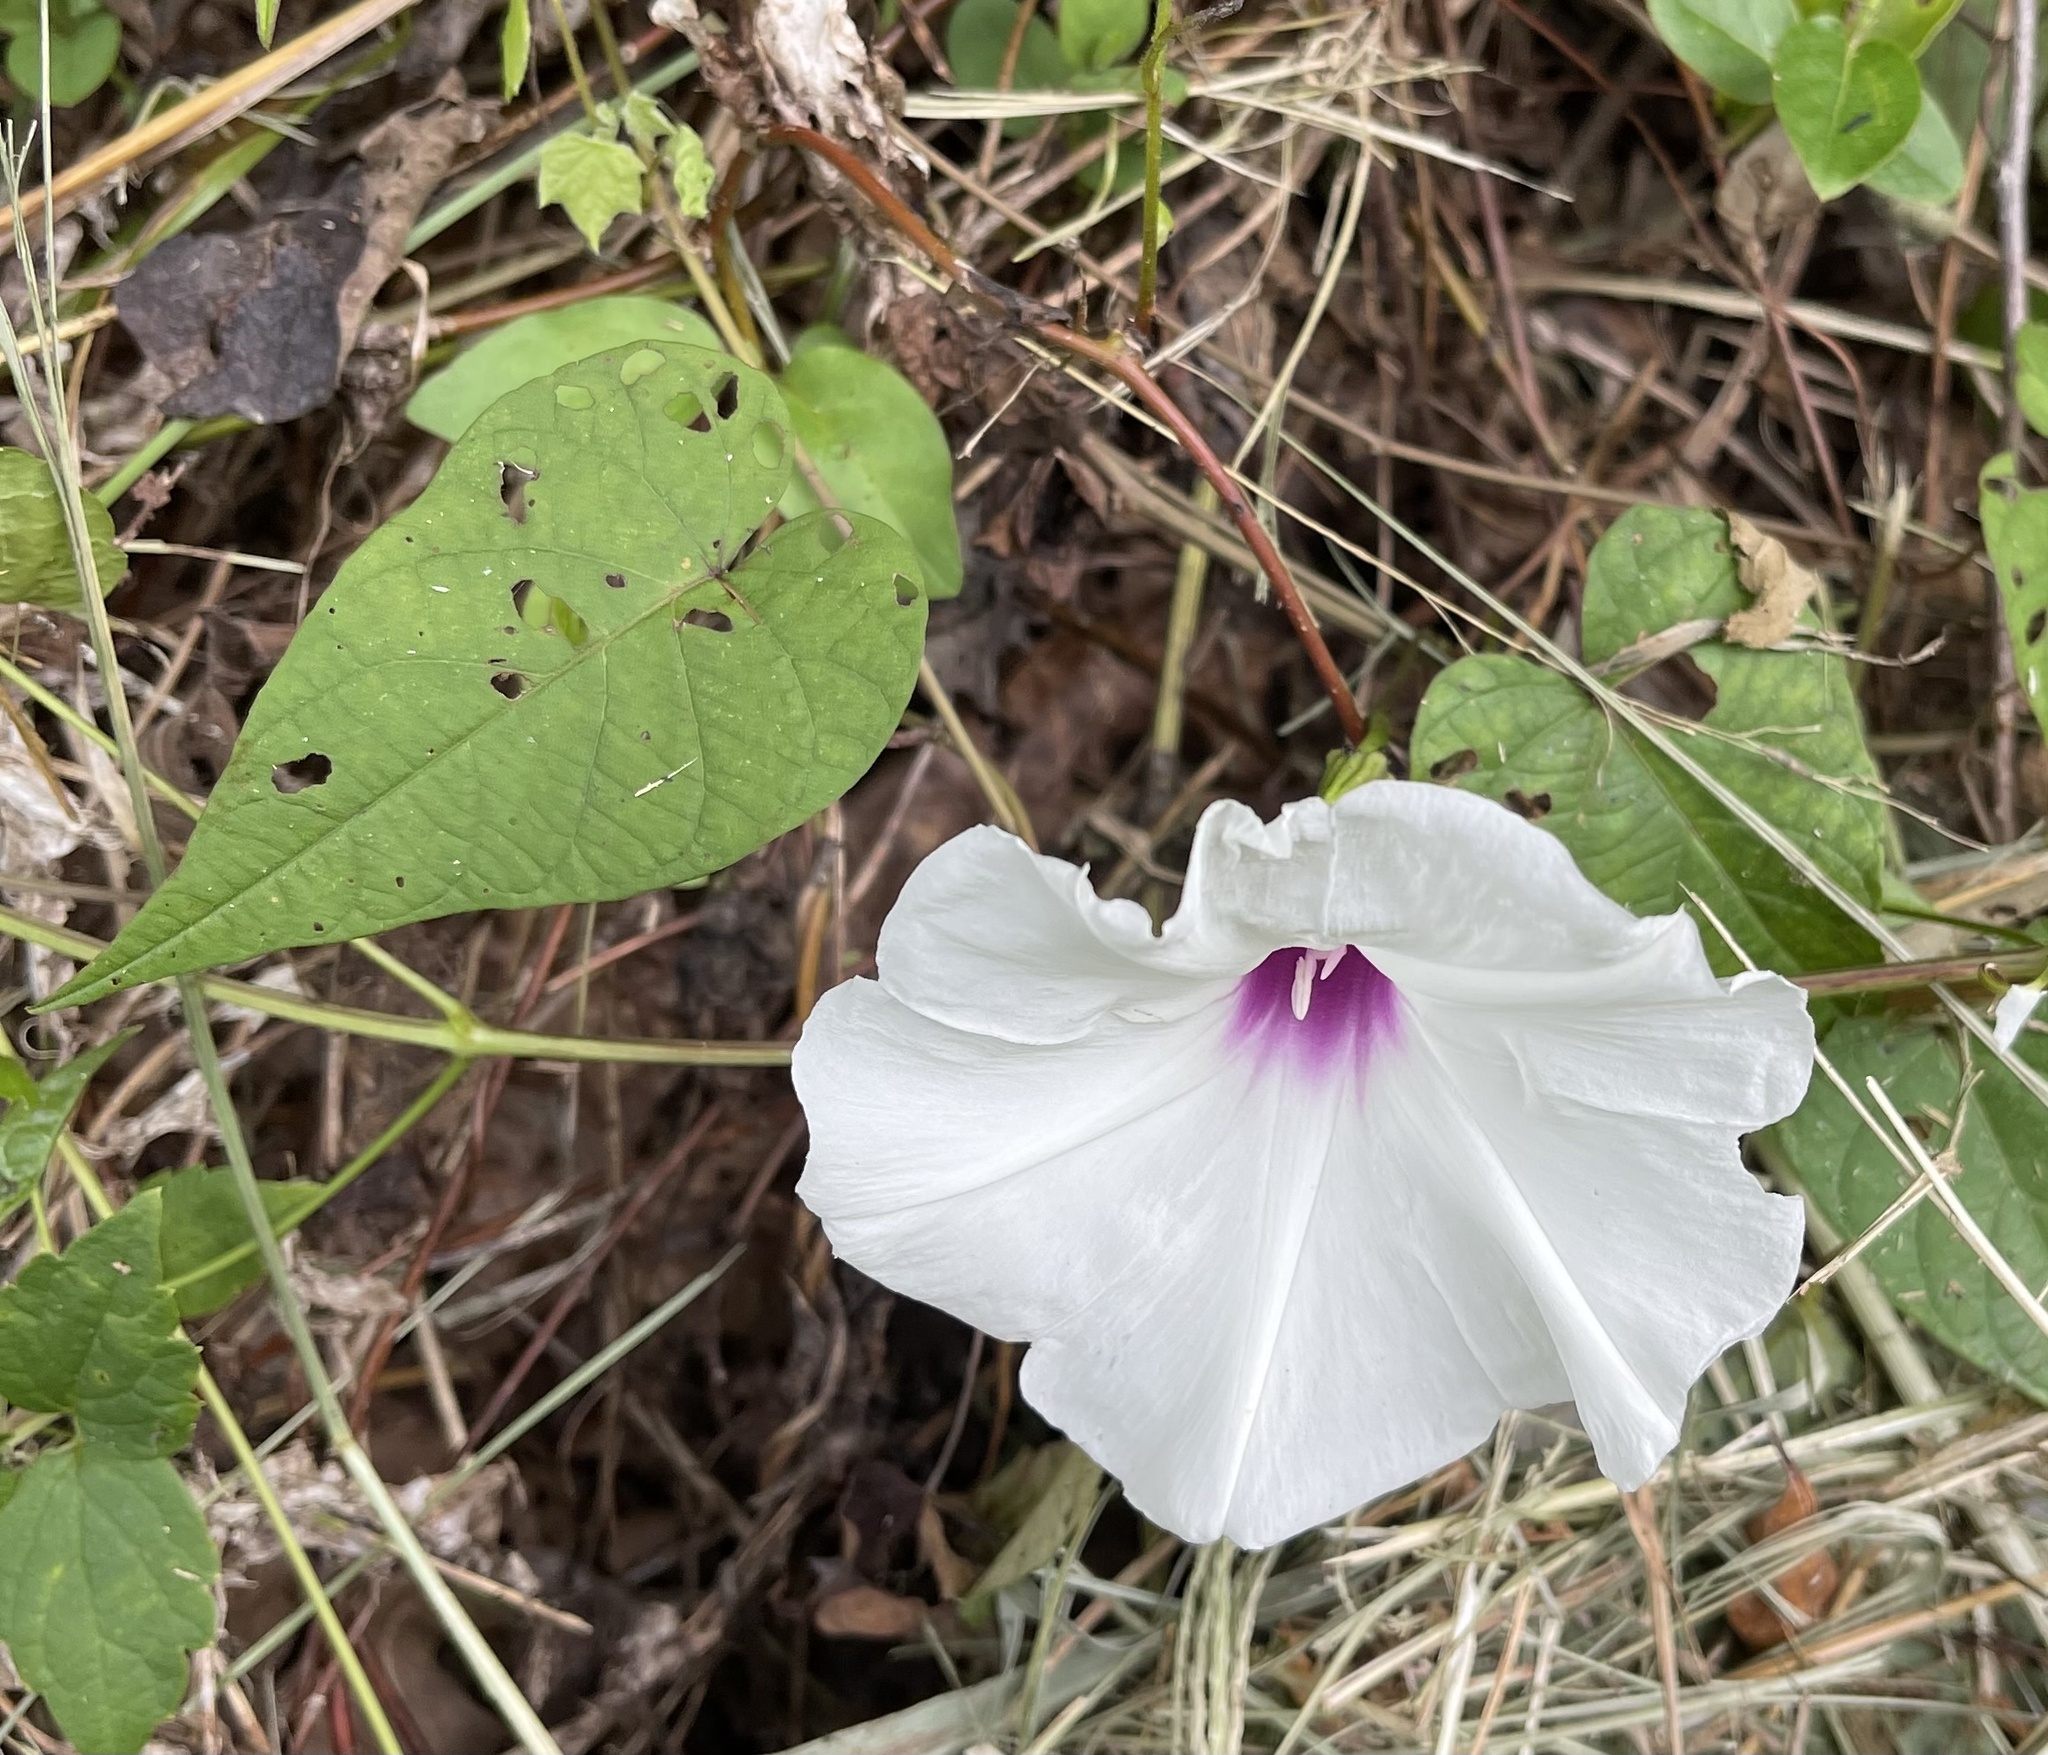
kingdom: Plantae
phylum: Tracheophyta
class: Magnoliopsida
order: Solanales
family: Convolvulaceae
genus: Ipomoea
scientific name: Ipomoea pandurata
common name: Man-of-the-earth
